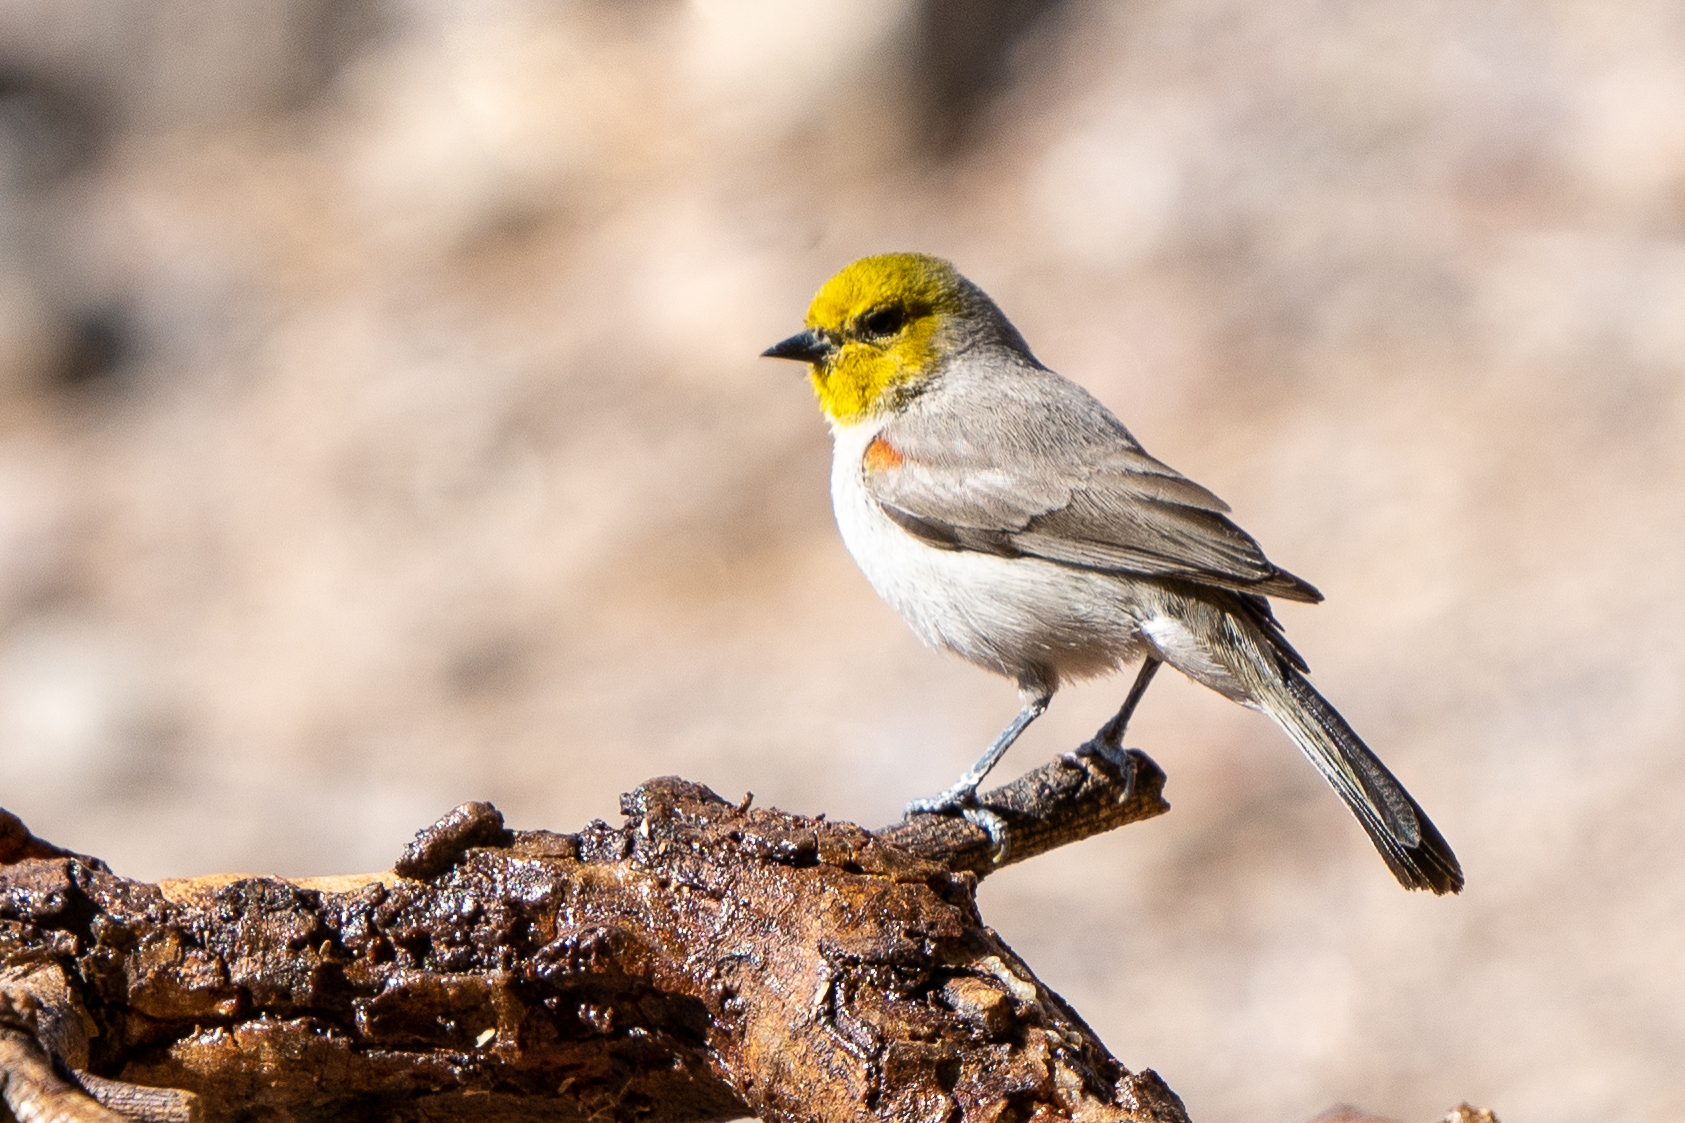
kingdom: Animalia
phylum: Chordata
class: Aves
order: Passeriformes
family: Remizidae
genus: Auriparus
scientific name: Auriparus flaviceps
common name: Verdin
